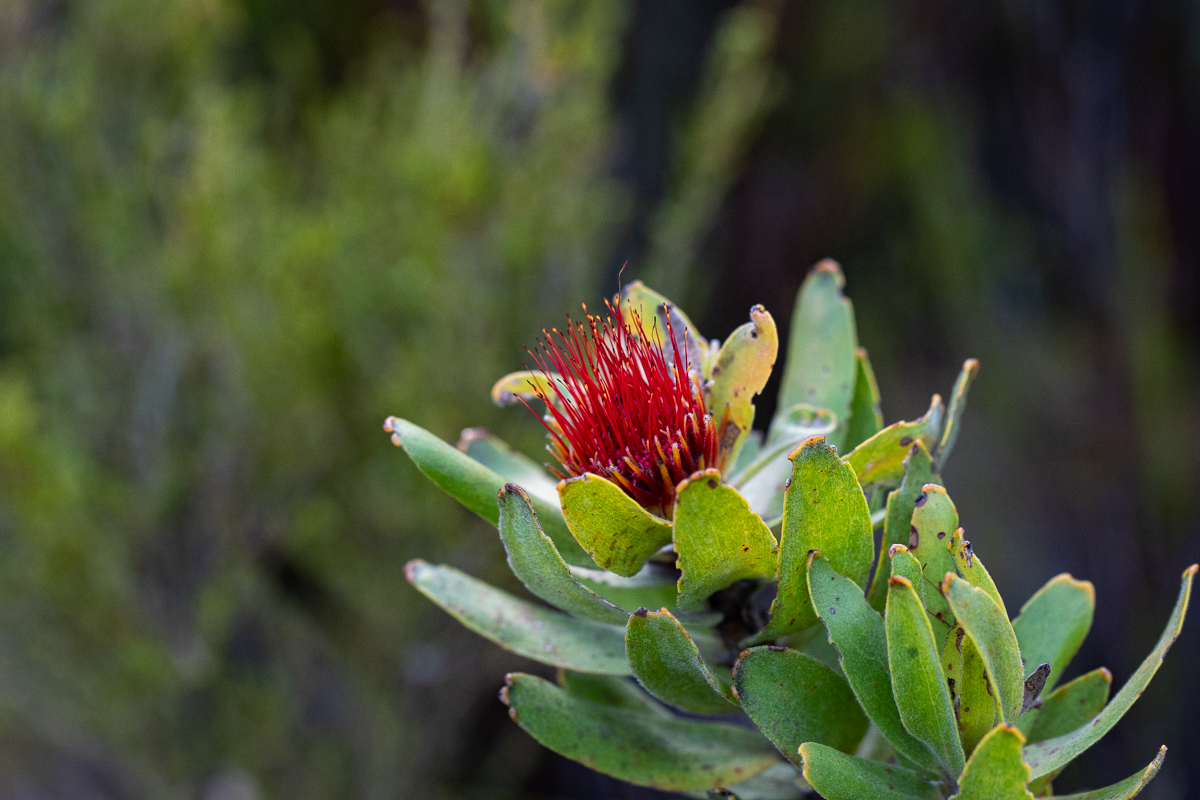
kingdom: Plantae
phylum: Tracheophyta
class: Magnoliopsida
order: Proteales
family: Proteaceae
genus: Leucospermum
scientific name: Leucospermum oleifolium
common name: Matches
